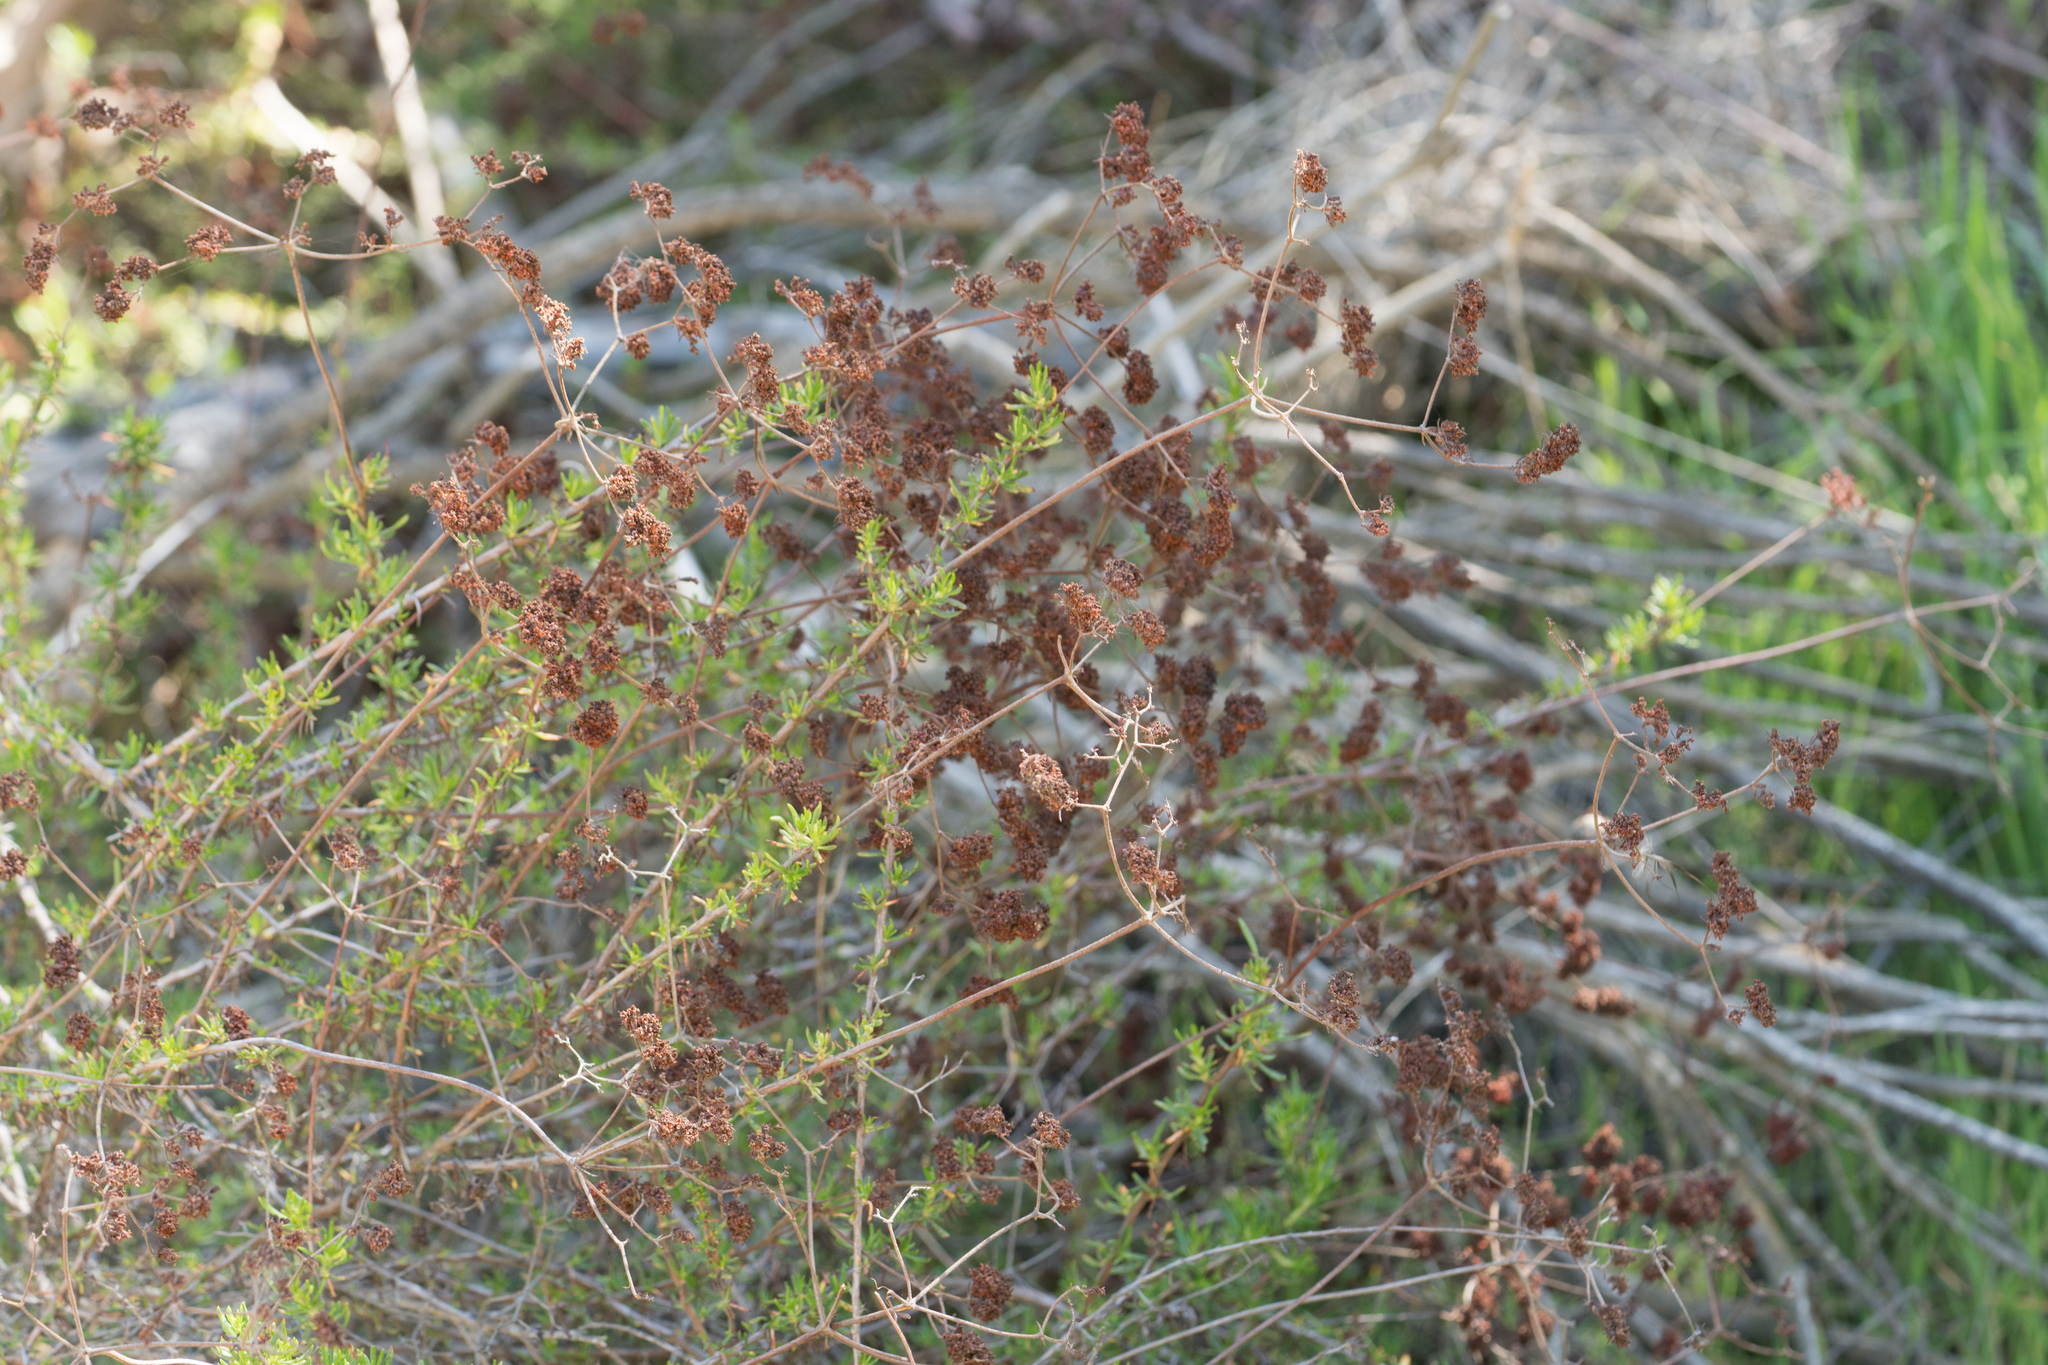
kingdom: Plantae
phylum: Tracheophyta
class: Magnoliopsida
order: Caryophyllales
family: Polygonaceae
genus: Eriogonum
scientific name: Eriogonum fasciculatum
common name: California wild buckwheat
